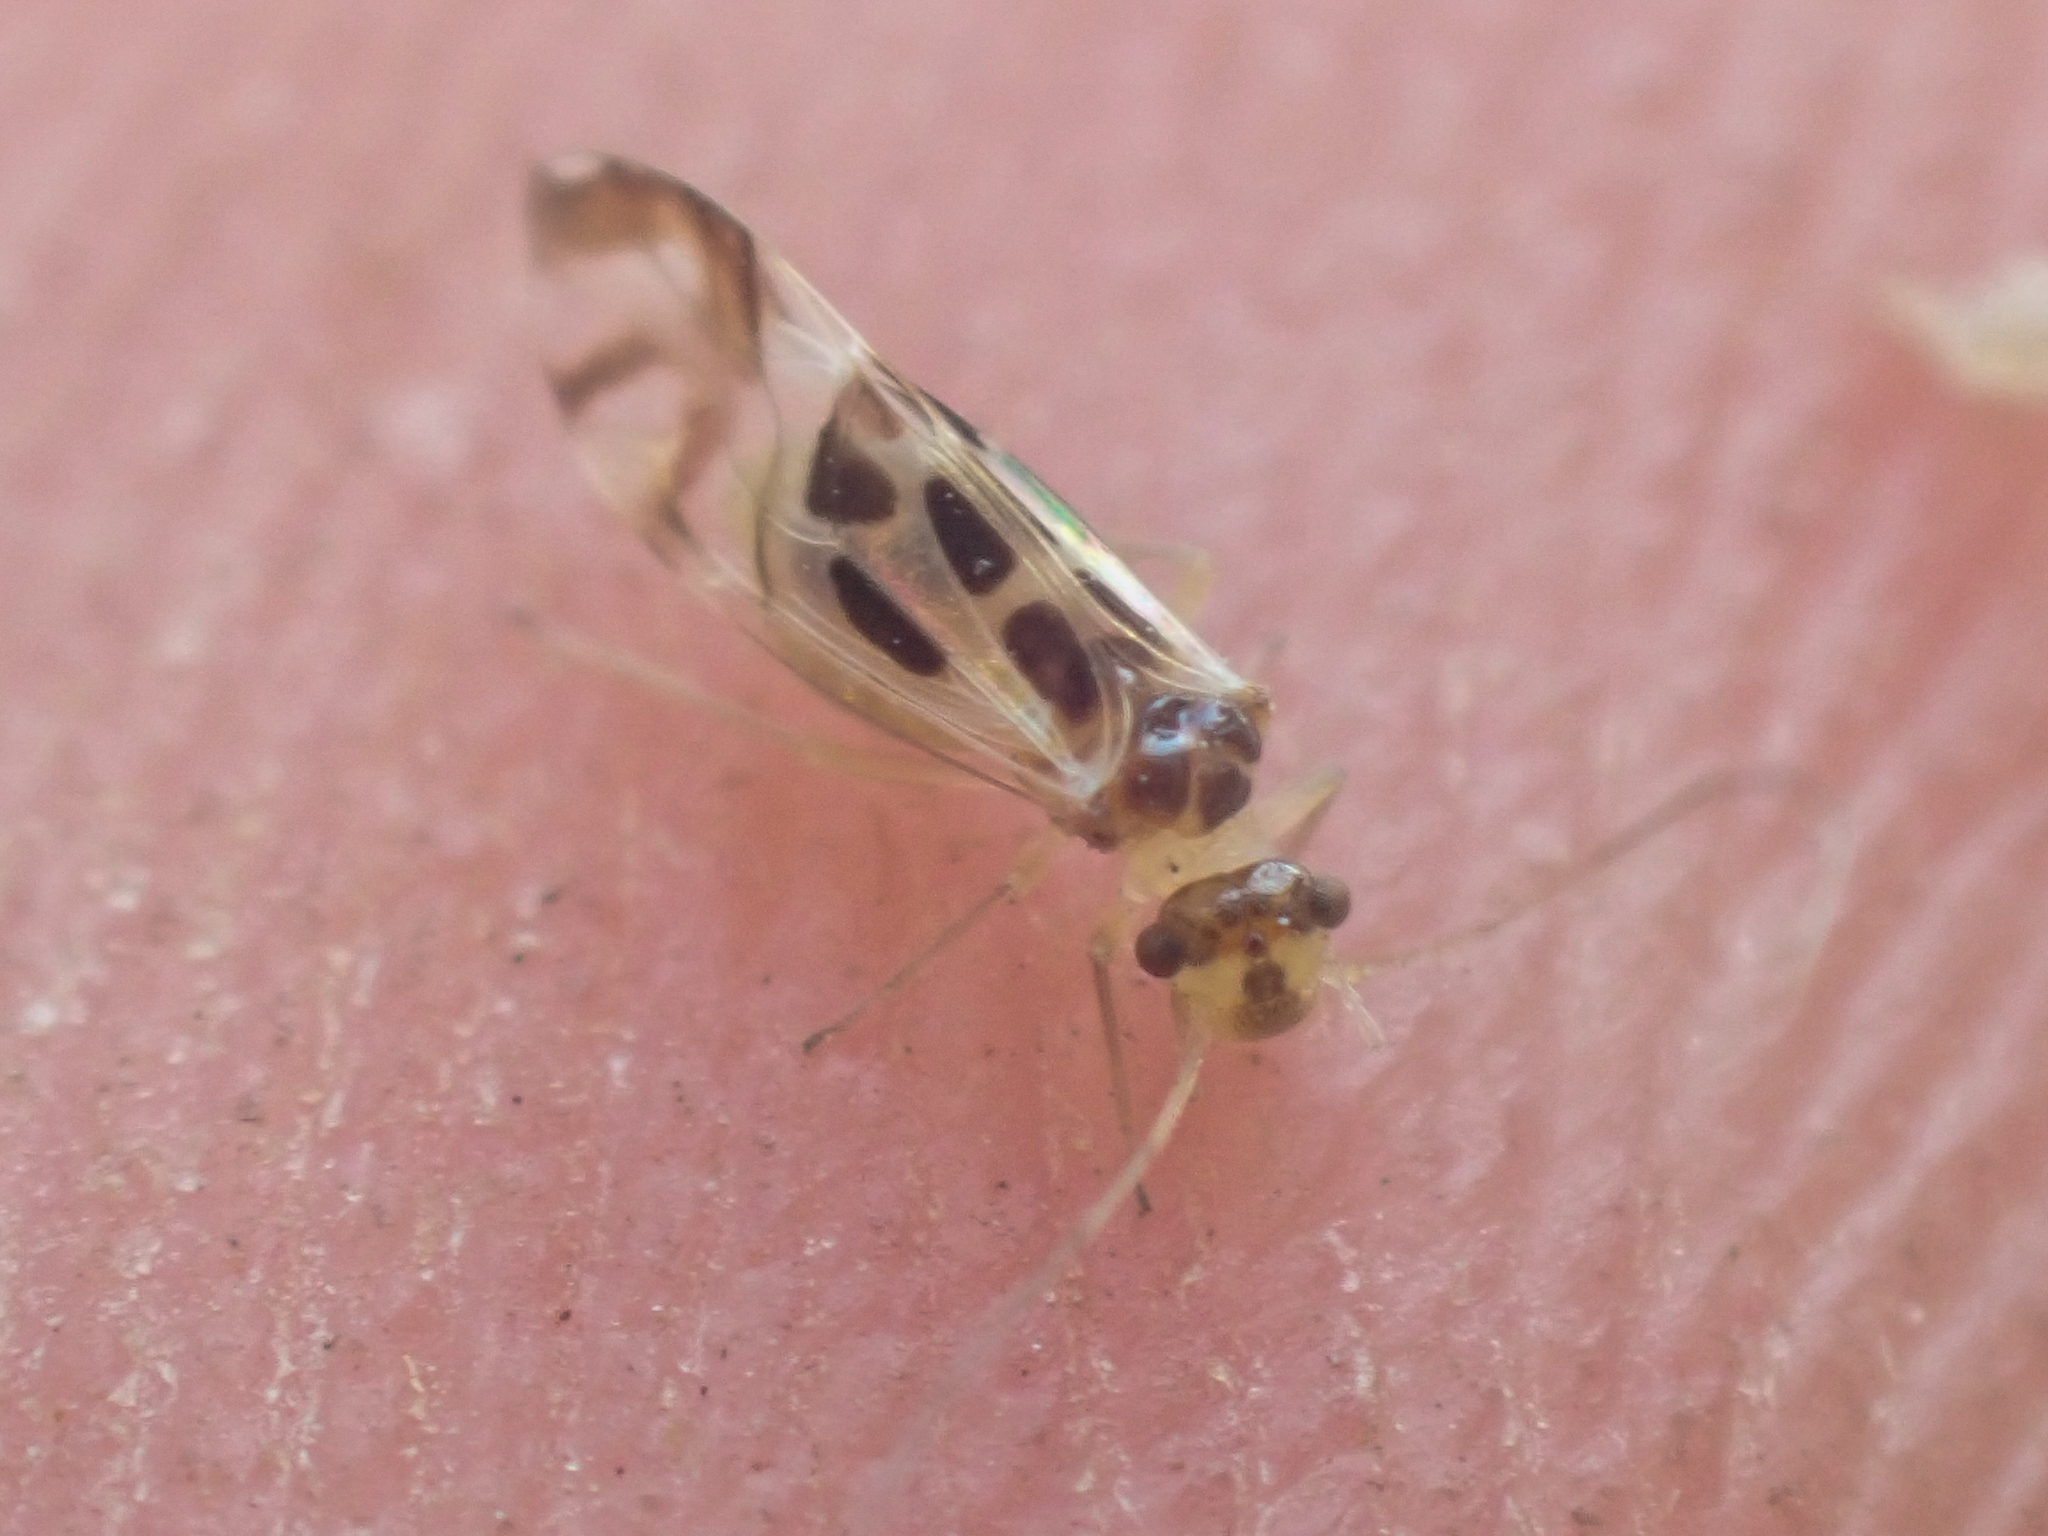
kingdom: Animalia
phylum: Arthropoda
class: Insecta
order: Psocodea
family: Stenopsocidae
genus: Graphopsocus
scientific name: Graphopsocus cruciatus
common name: Lizard bark louse
